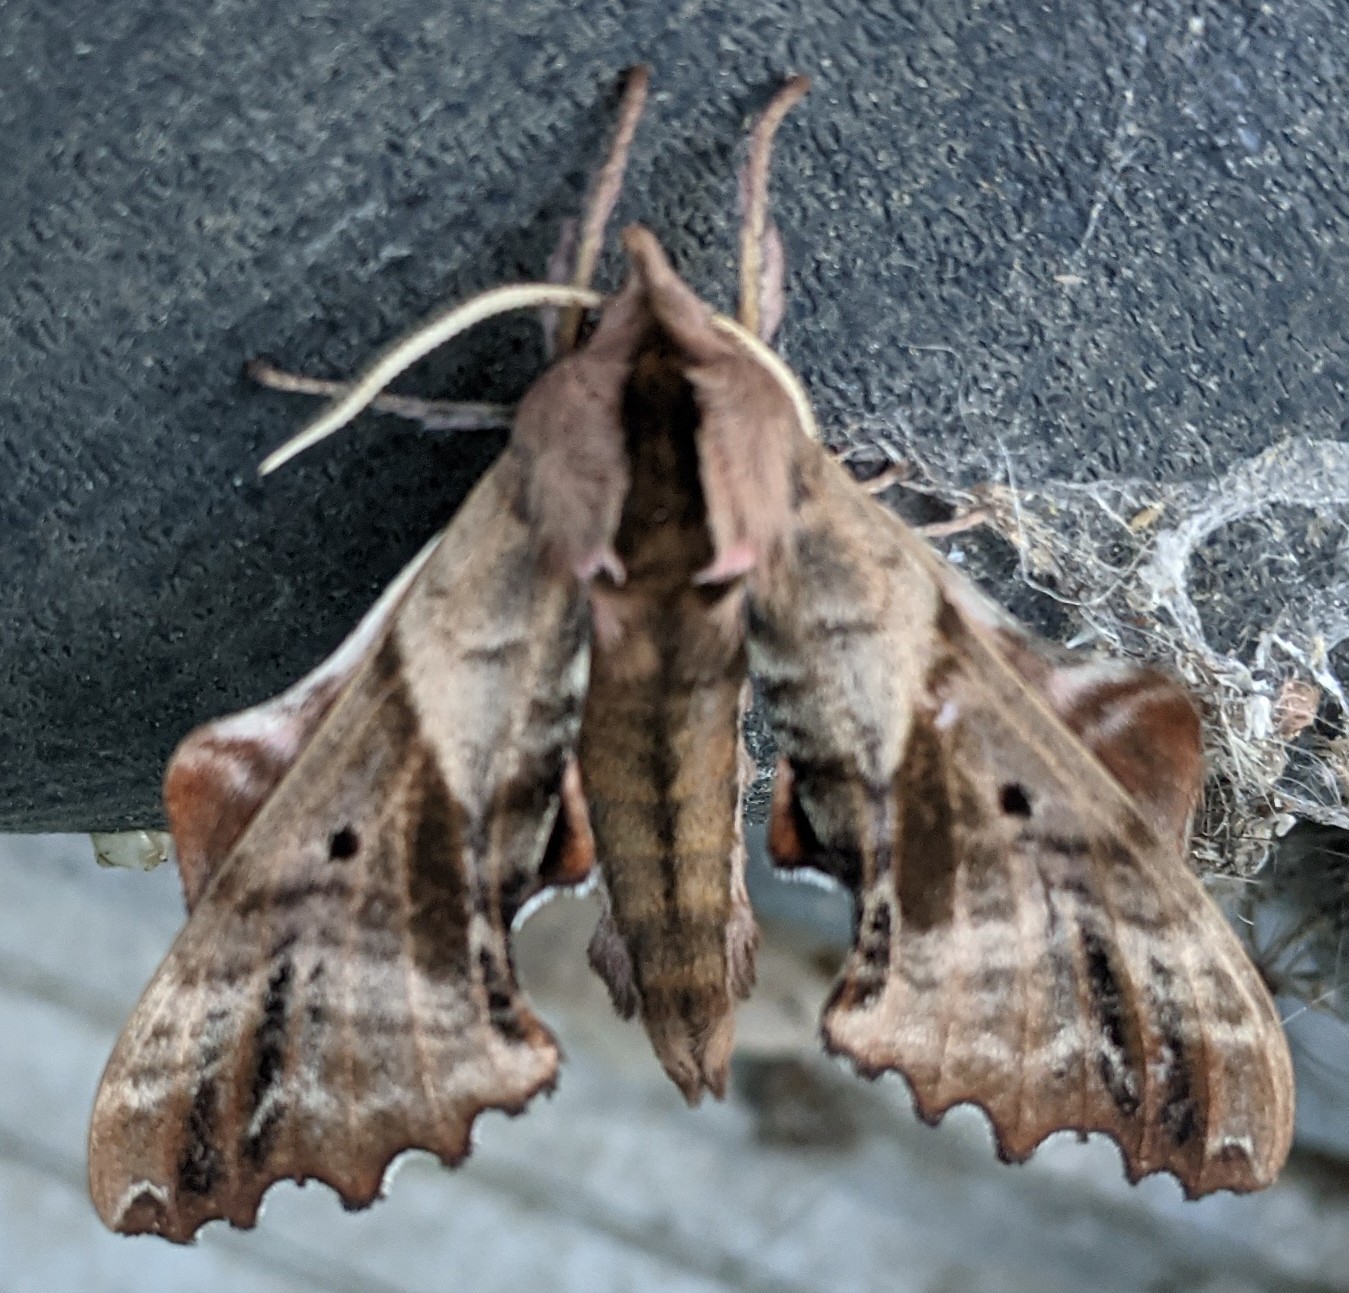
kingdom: Animalia
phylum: Arthropoda
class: Insecta
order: Lepidoptera
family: Sphingidae
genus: Paonias
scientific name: Paonias excaecata
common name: Blind-eyed sphinx
